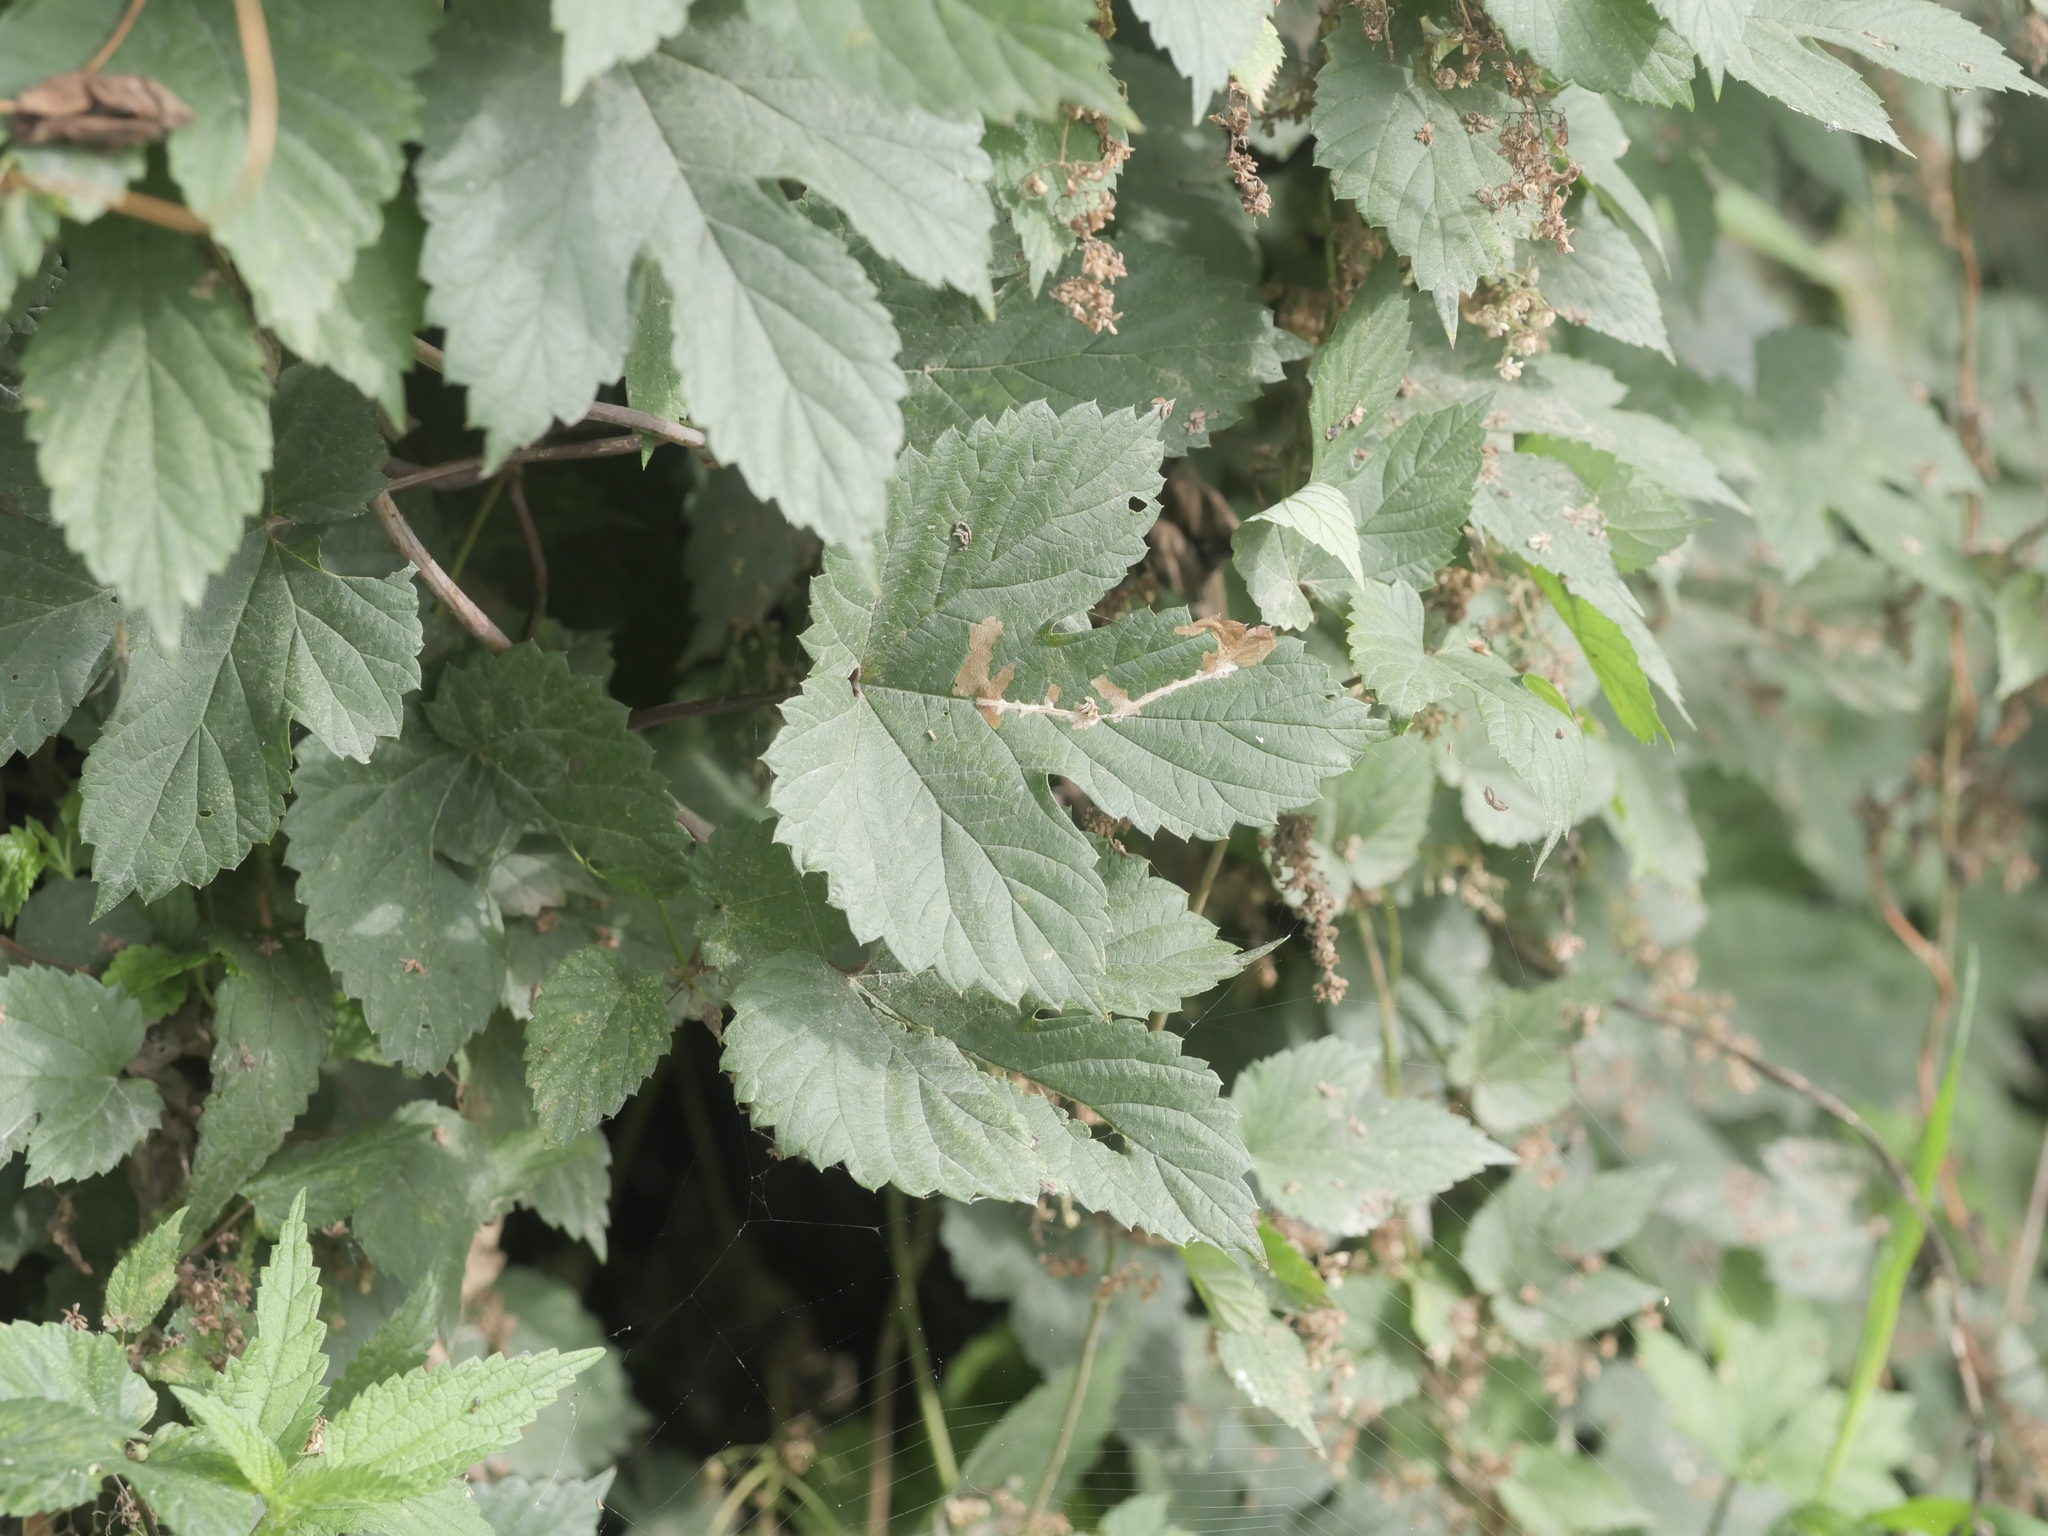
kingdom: Plantae
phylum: Tracheophyta
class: Magnoliopsida
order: Rosales
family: Cannabaceae
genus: Humulus
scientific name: Humulus lupulus
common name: Hop
